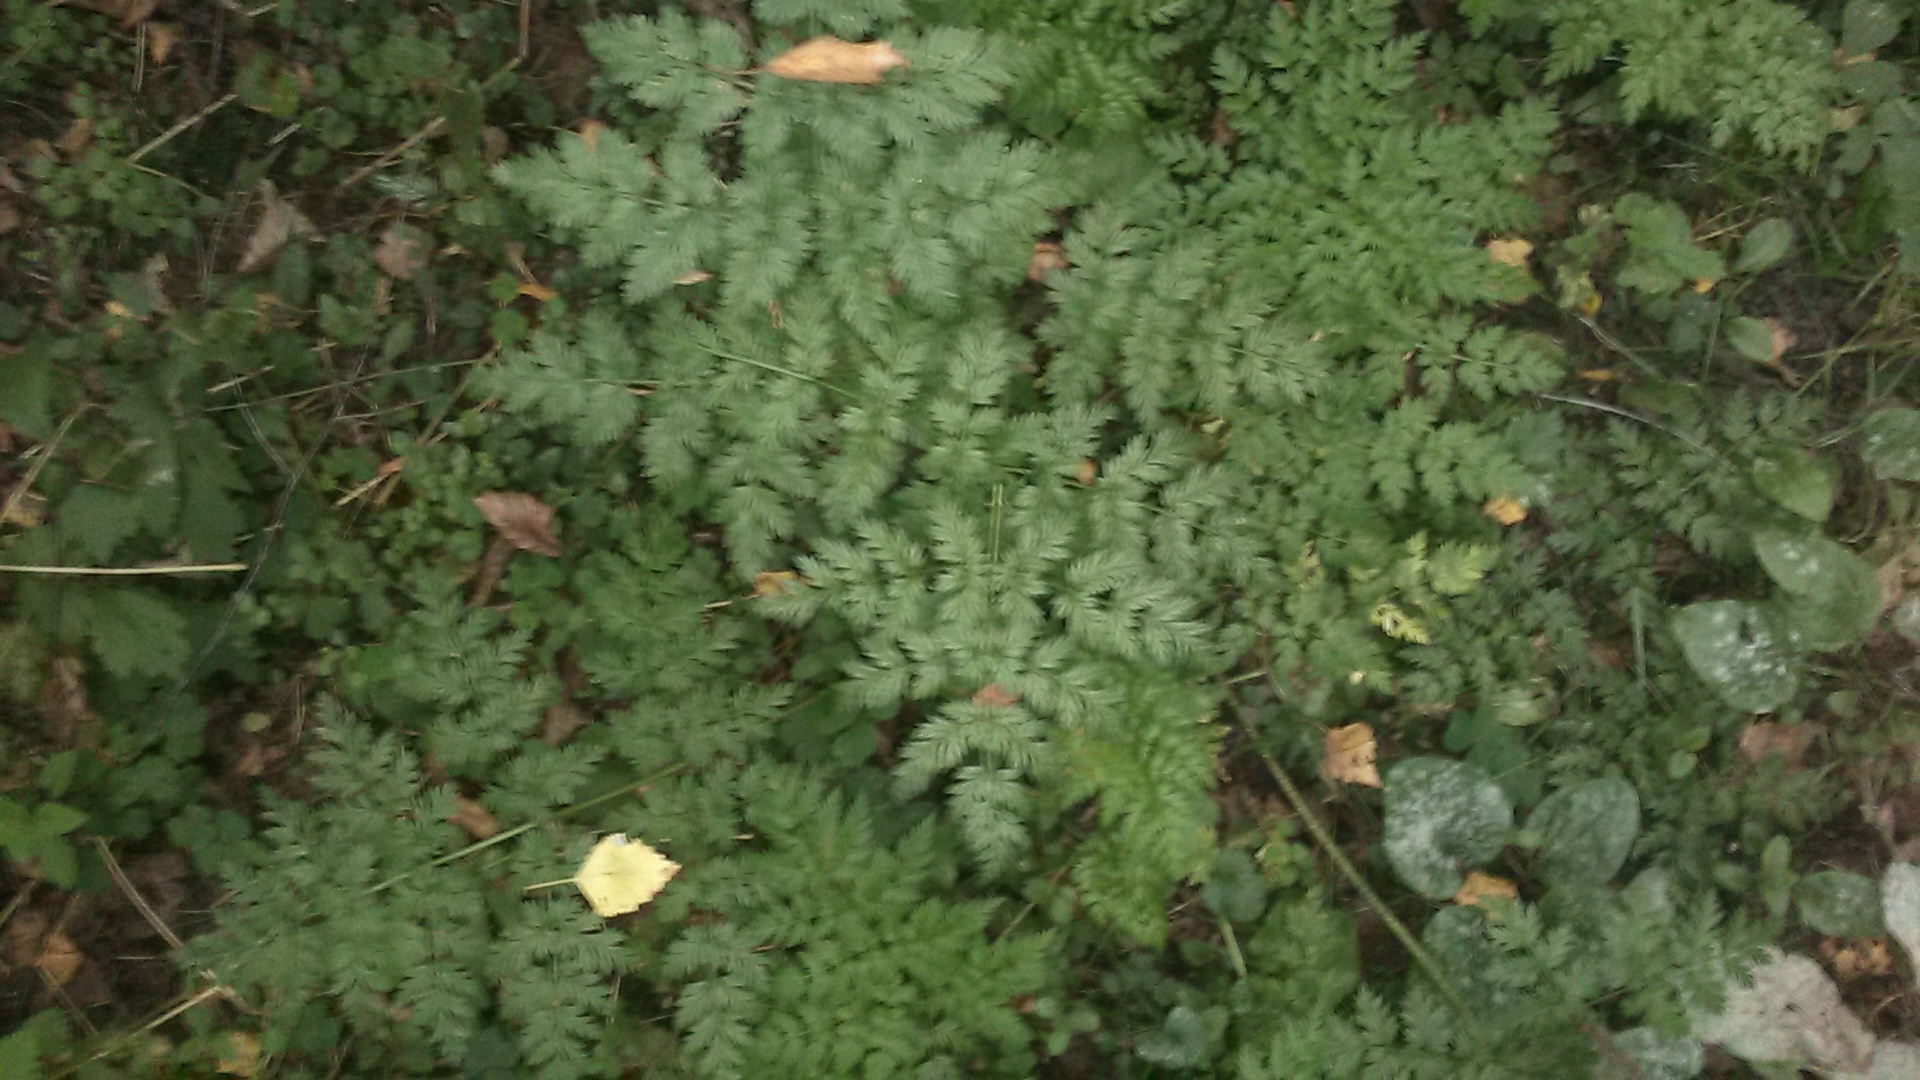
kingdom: Plantae
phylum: Tracheophyta
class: Magnoliopsida
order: Apiales
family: Apiaceae
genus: Anthriscus
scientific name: Anthriscus sylvestris
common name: Cow parsley
